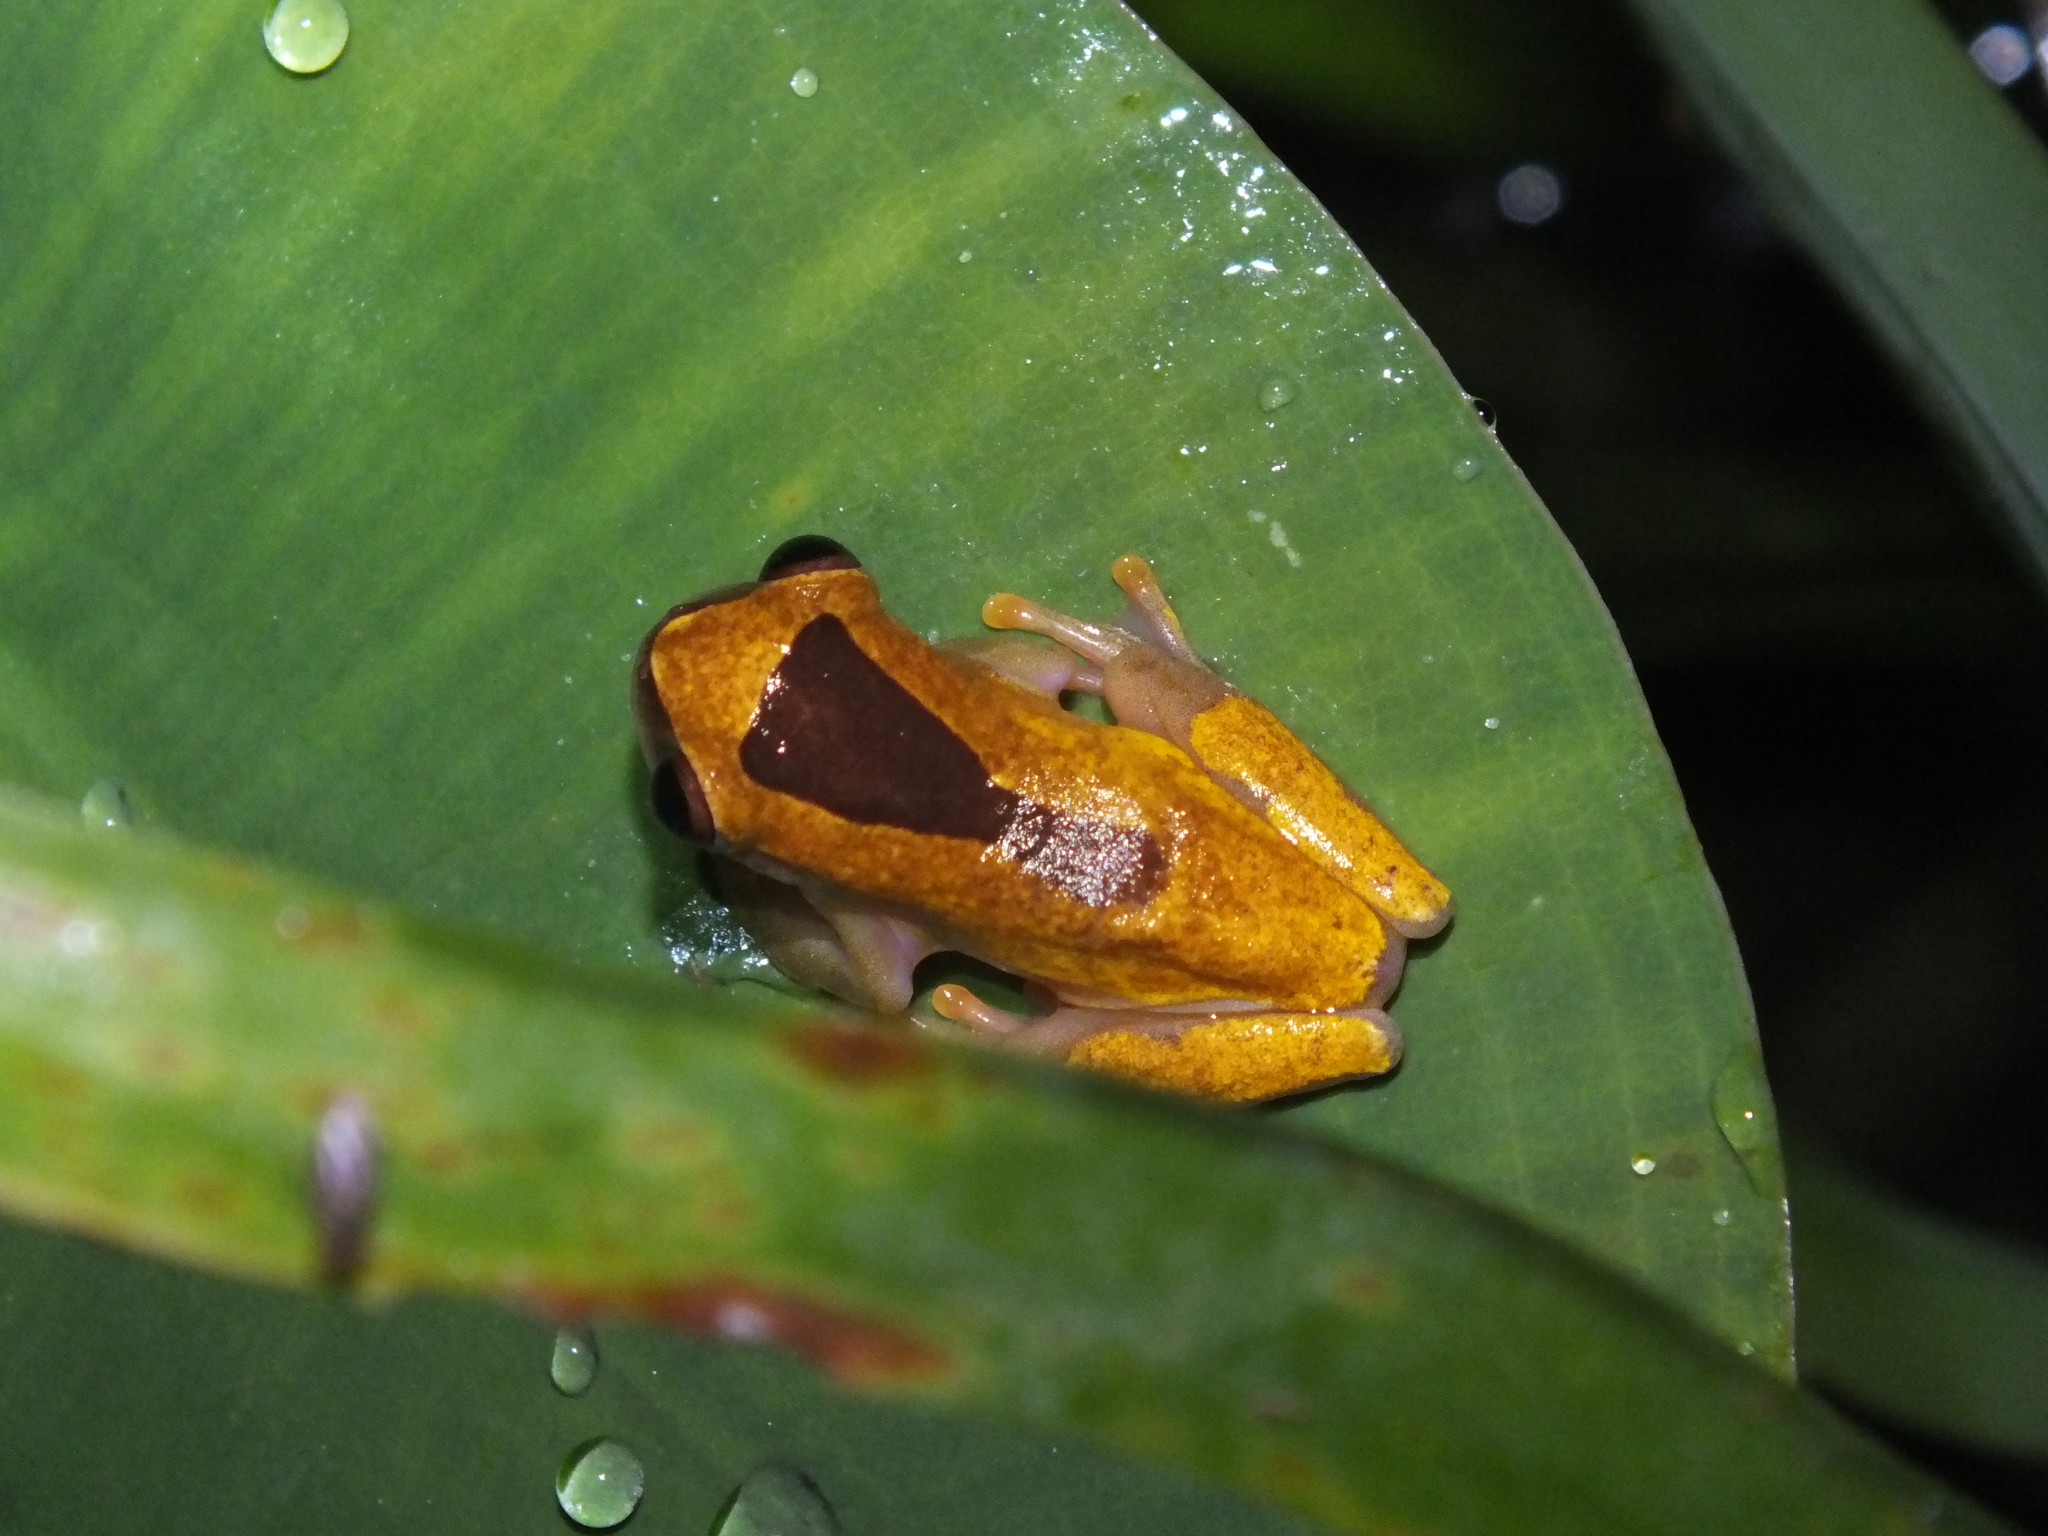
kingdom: Animalia
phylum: Chordata
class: Amphibia
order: Anura
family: Hylidae
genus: Dendropsophus
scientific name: Dendropsophus triangulum
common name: Triangle treefrog
